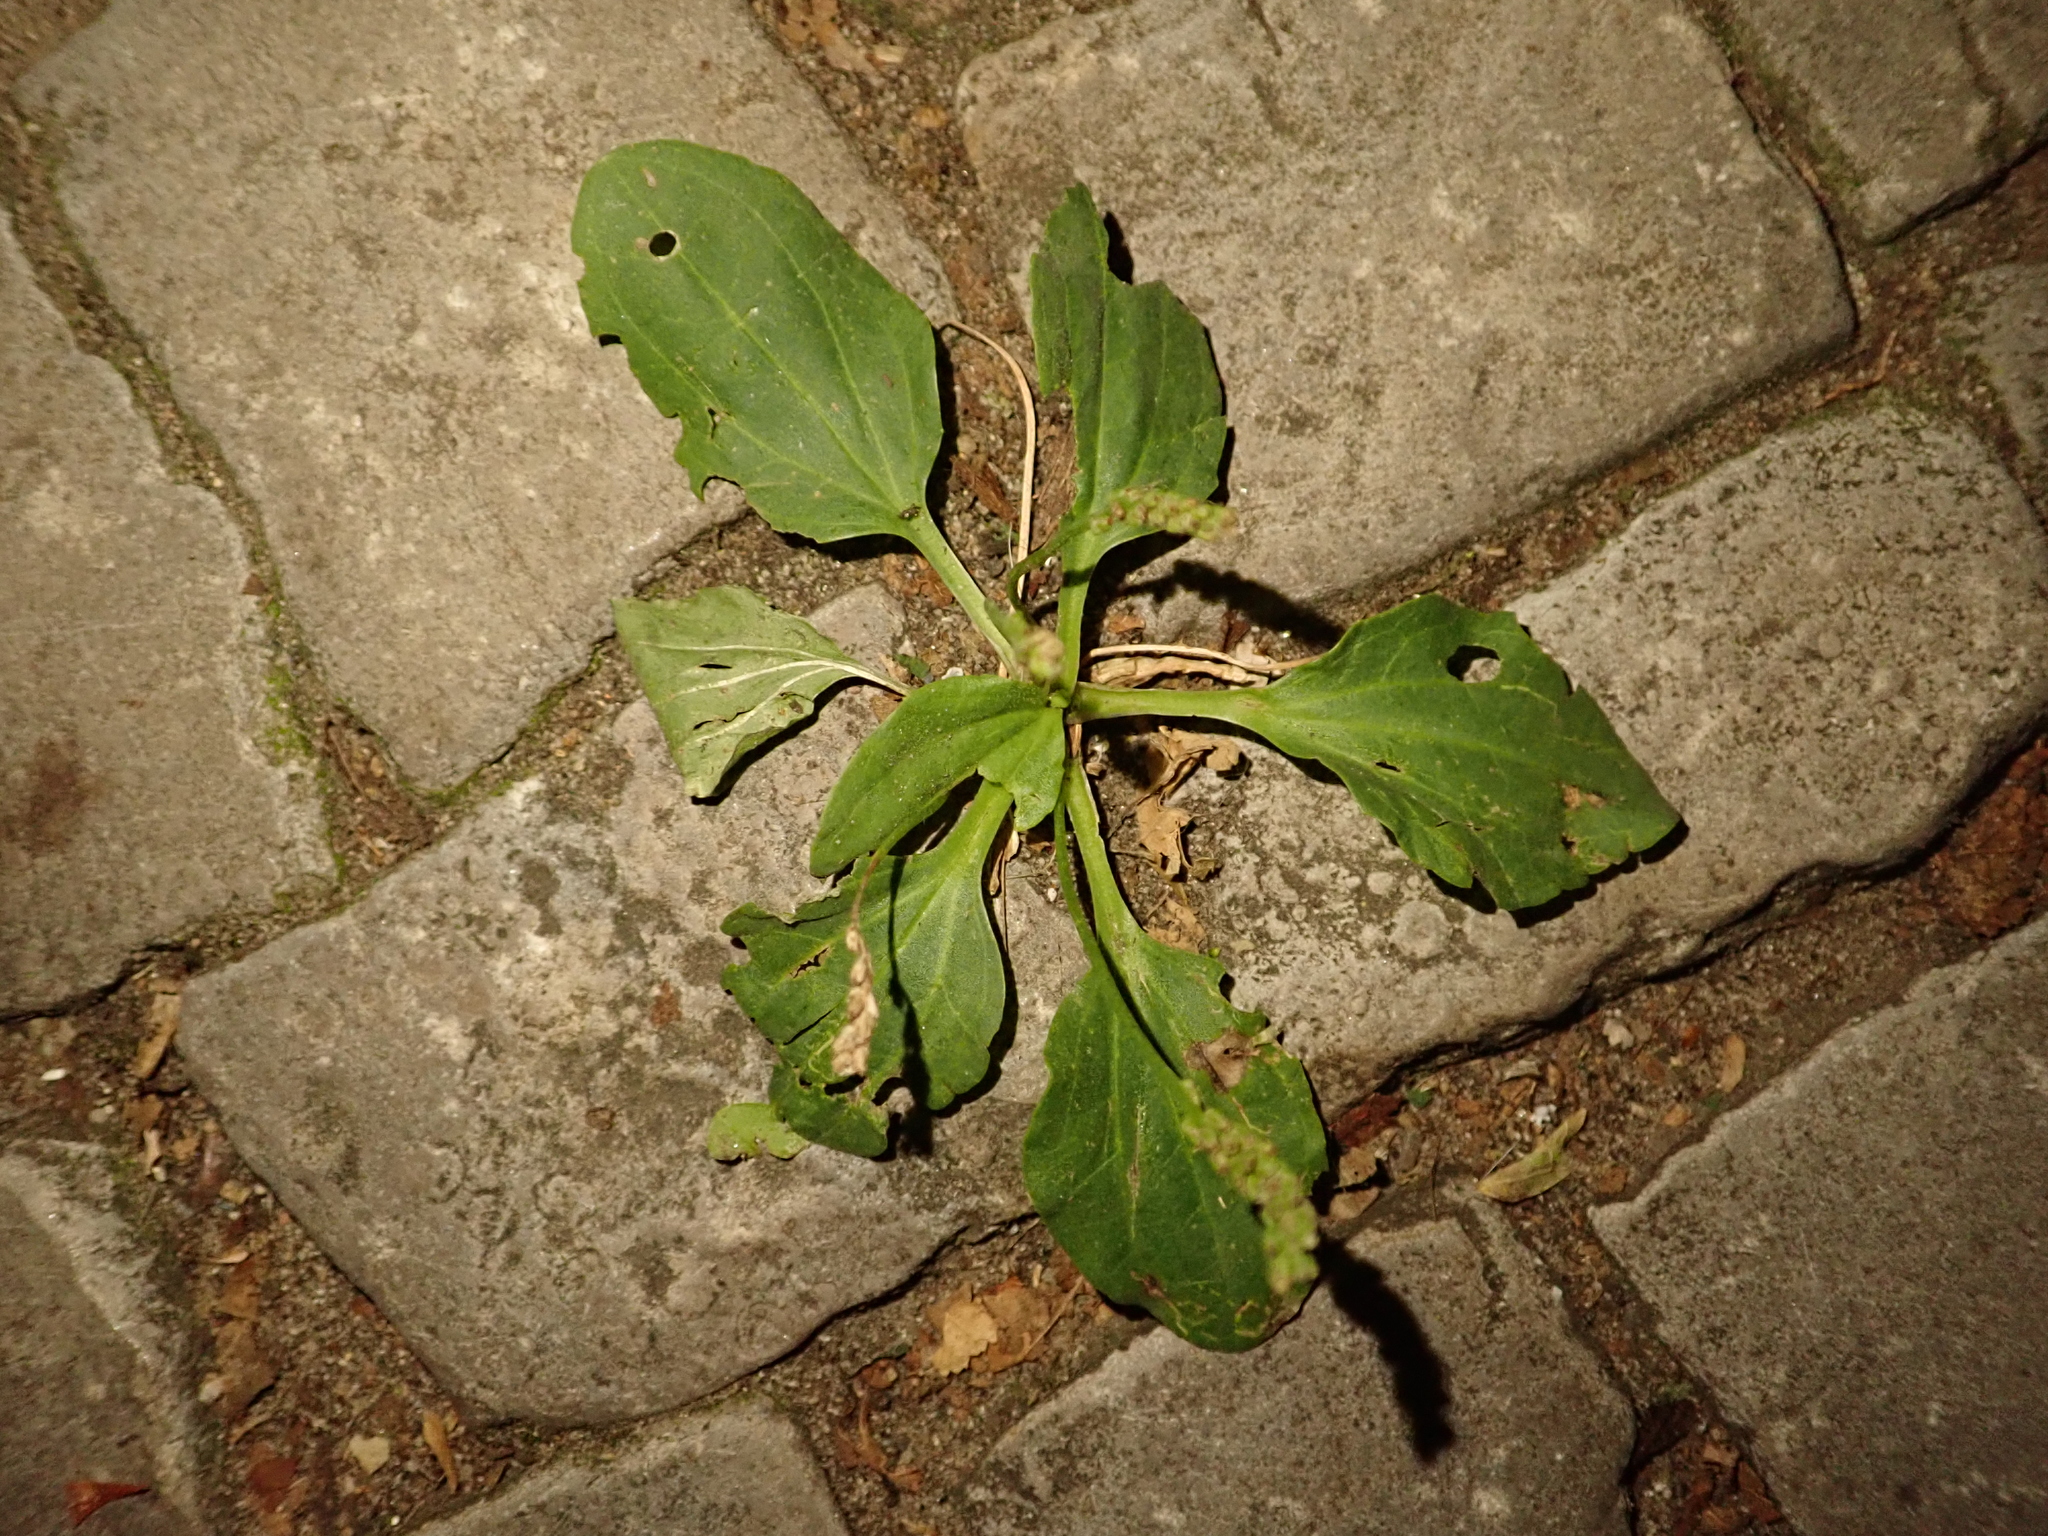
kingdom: Plantae
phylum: Tracheophyta
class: Magnoliopsida
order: Lamiales
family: Plantaginaceae
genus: Plantago
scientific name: Plantago major
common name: Common plantain
